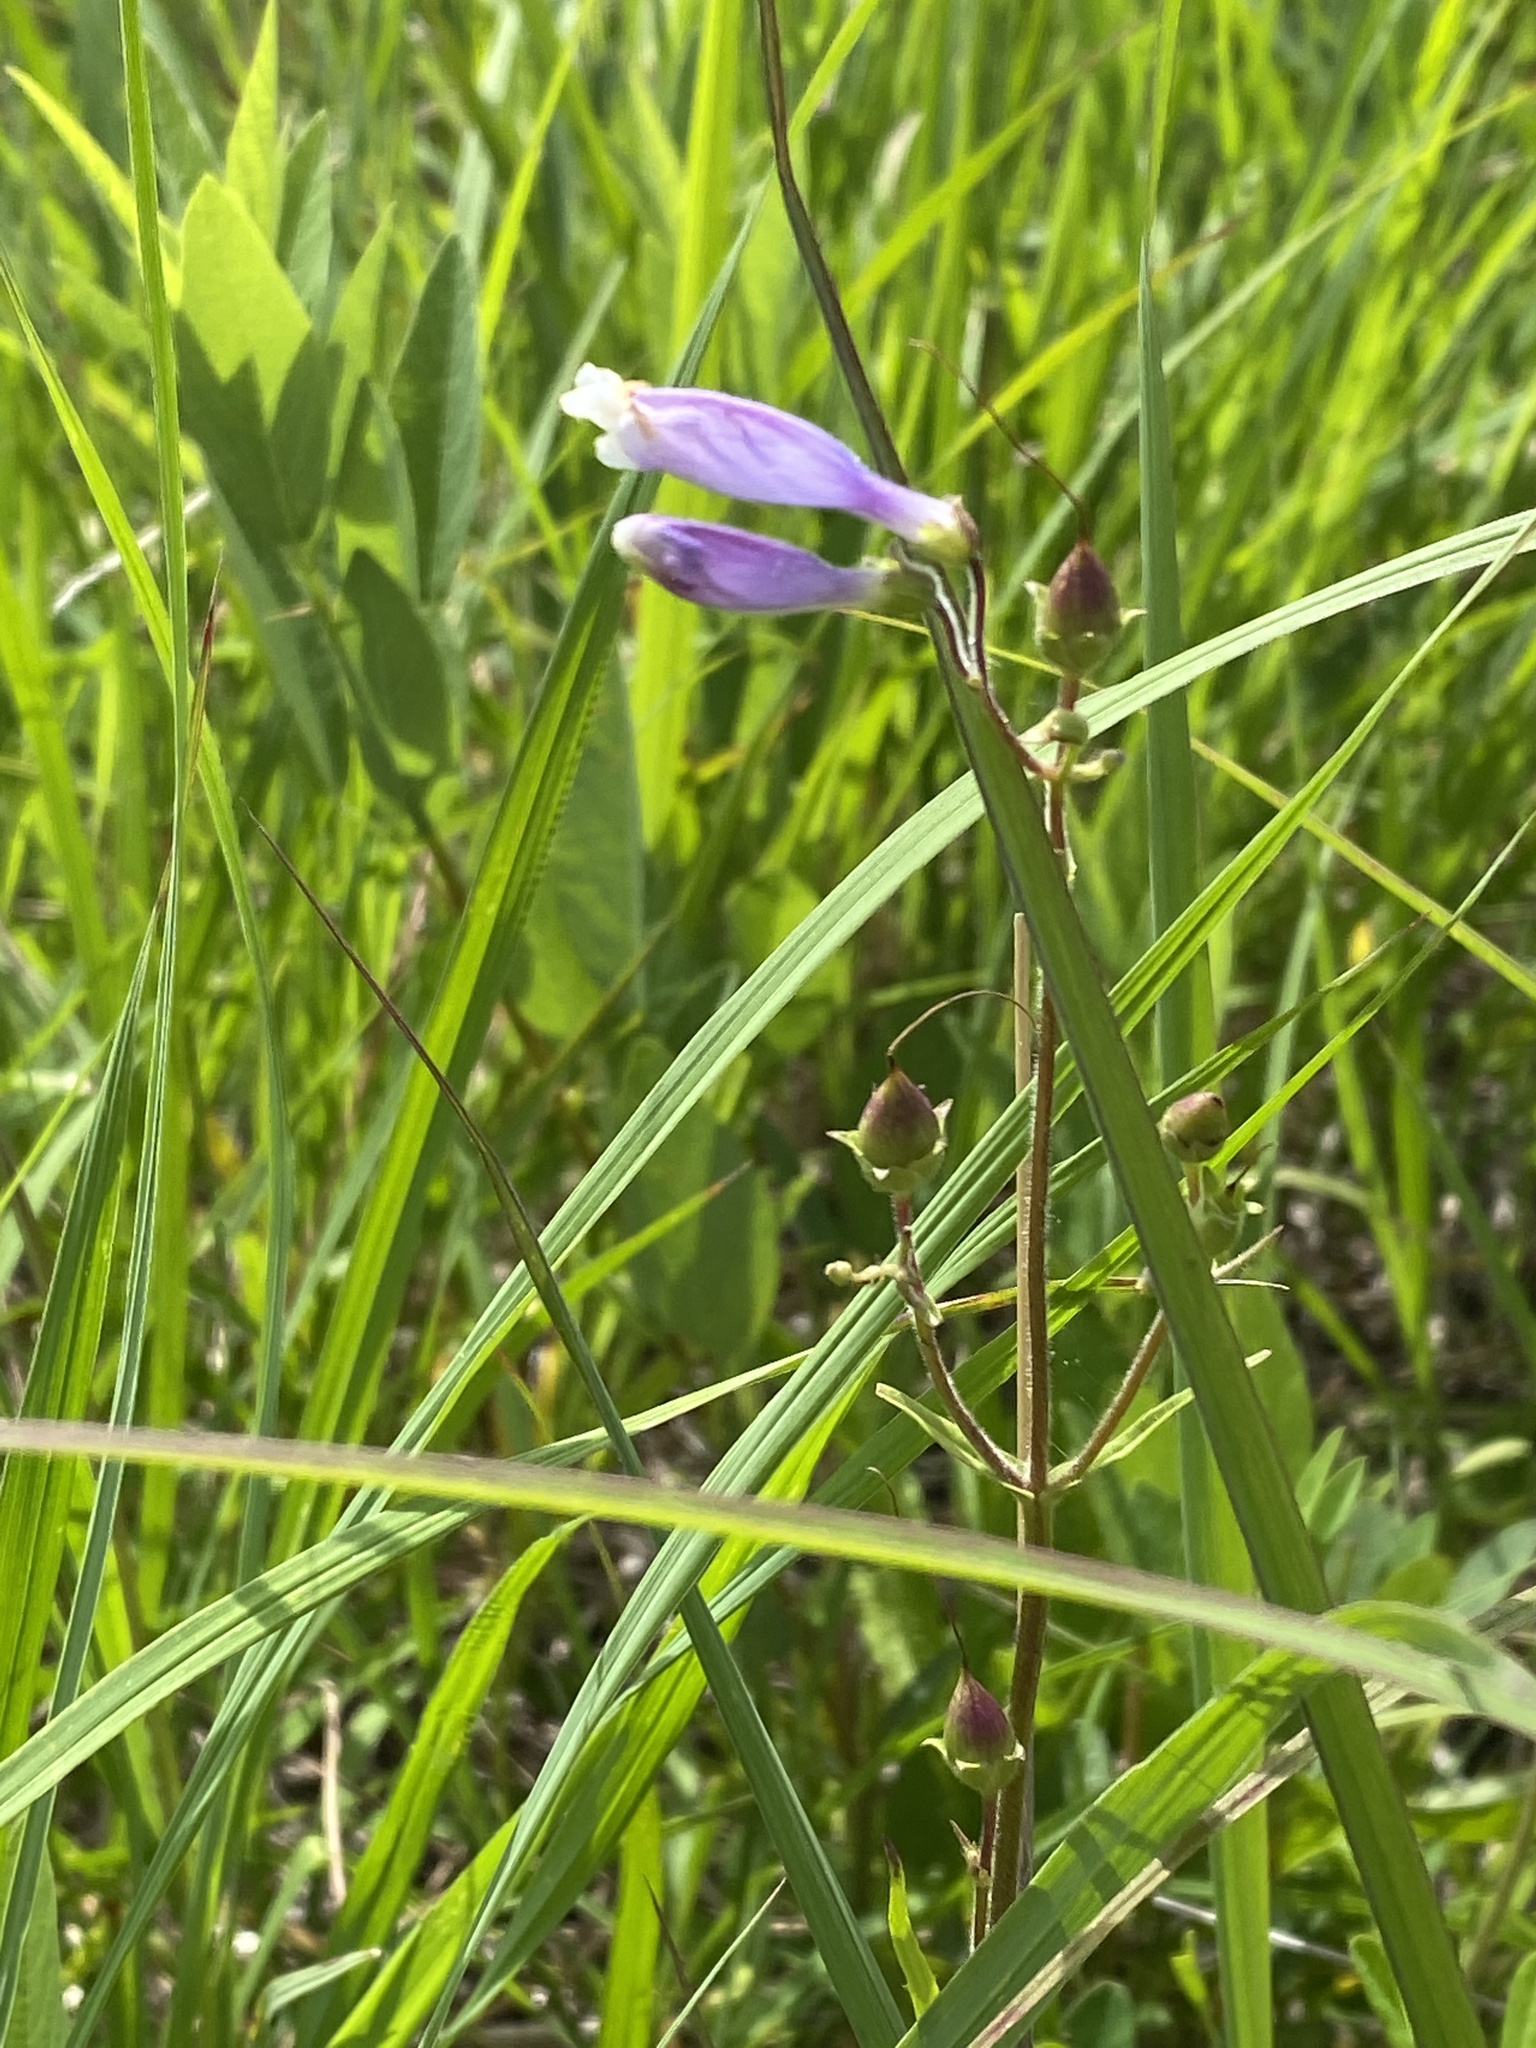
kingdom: Plantae
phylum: Tracheophyta
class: Magnoliopsida
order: Lamiales
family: Plantaginaceae
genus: Penstemon
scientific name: Penstemon hirsutus
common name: Hairy beardtongue
